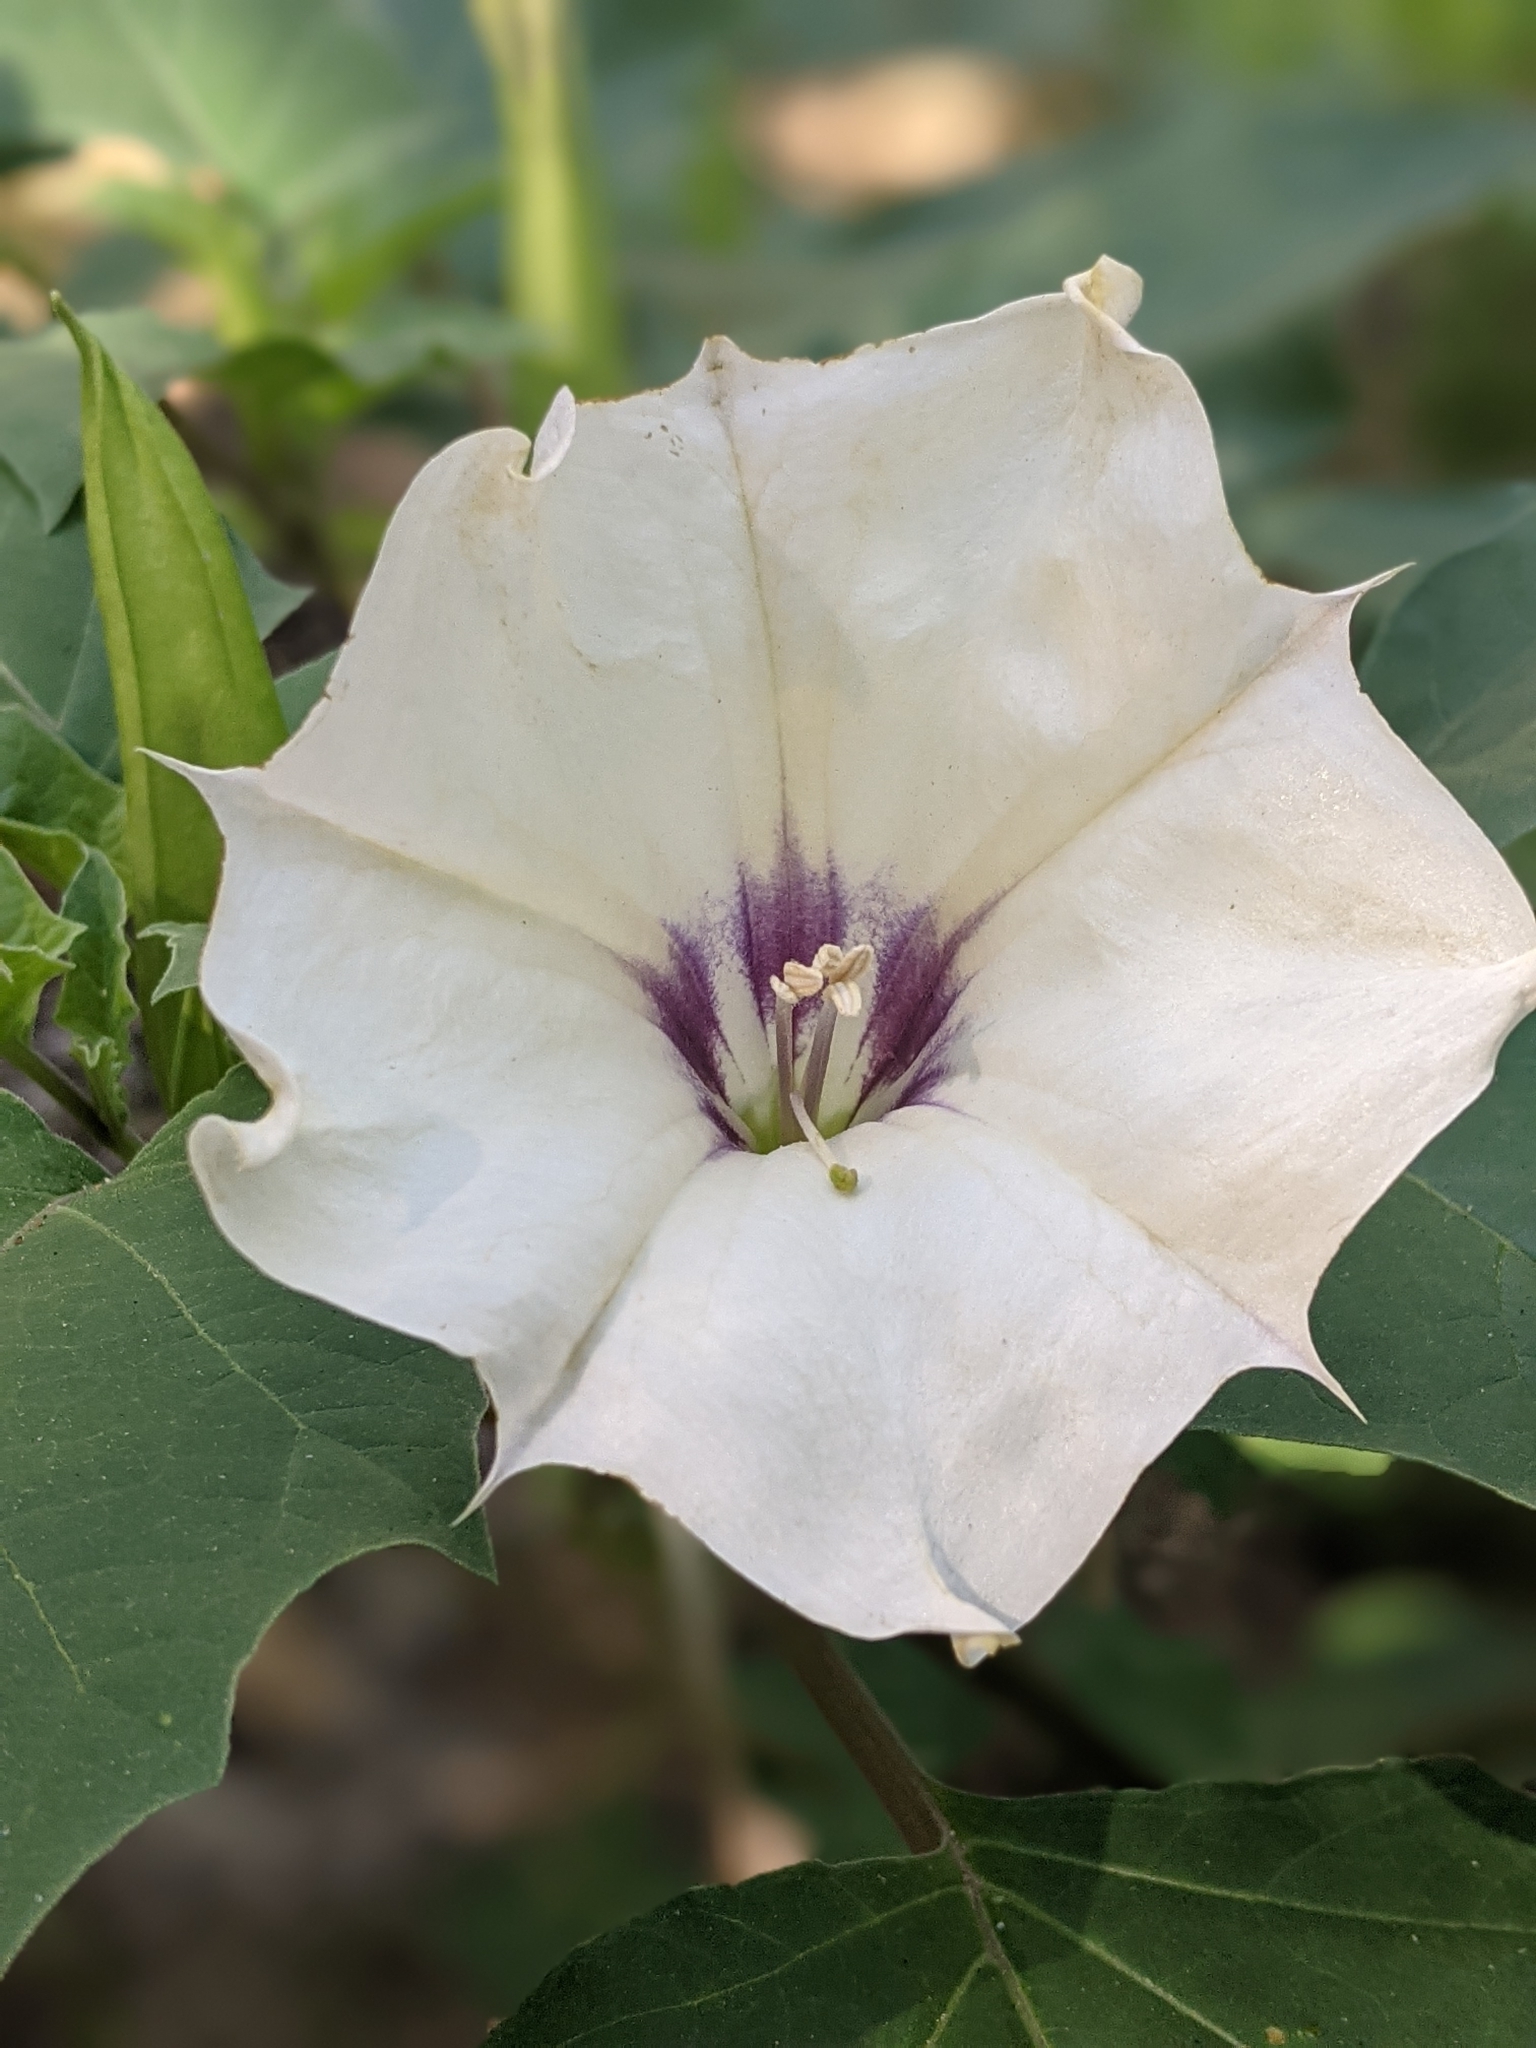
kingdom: Plantae
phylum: Tracheophyta
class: Magnoliopsida
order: Solanales
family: Solanaceae
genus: Datura
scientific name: Datura discolor
